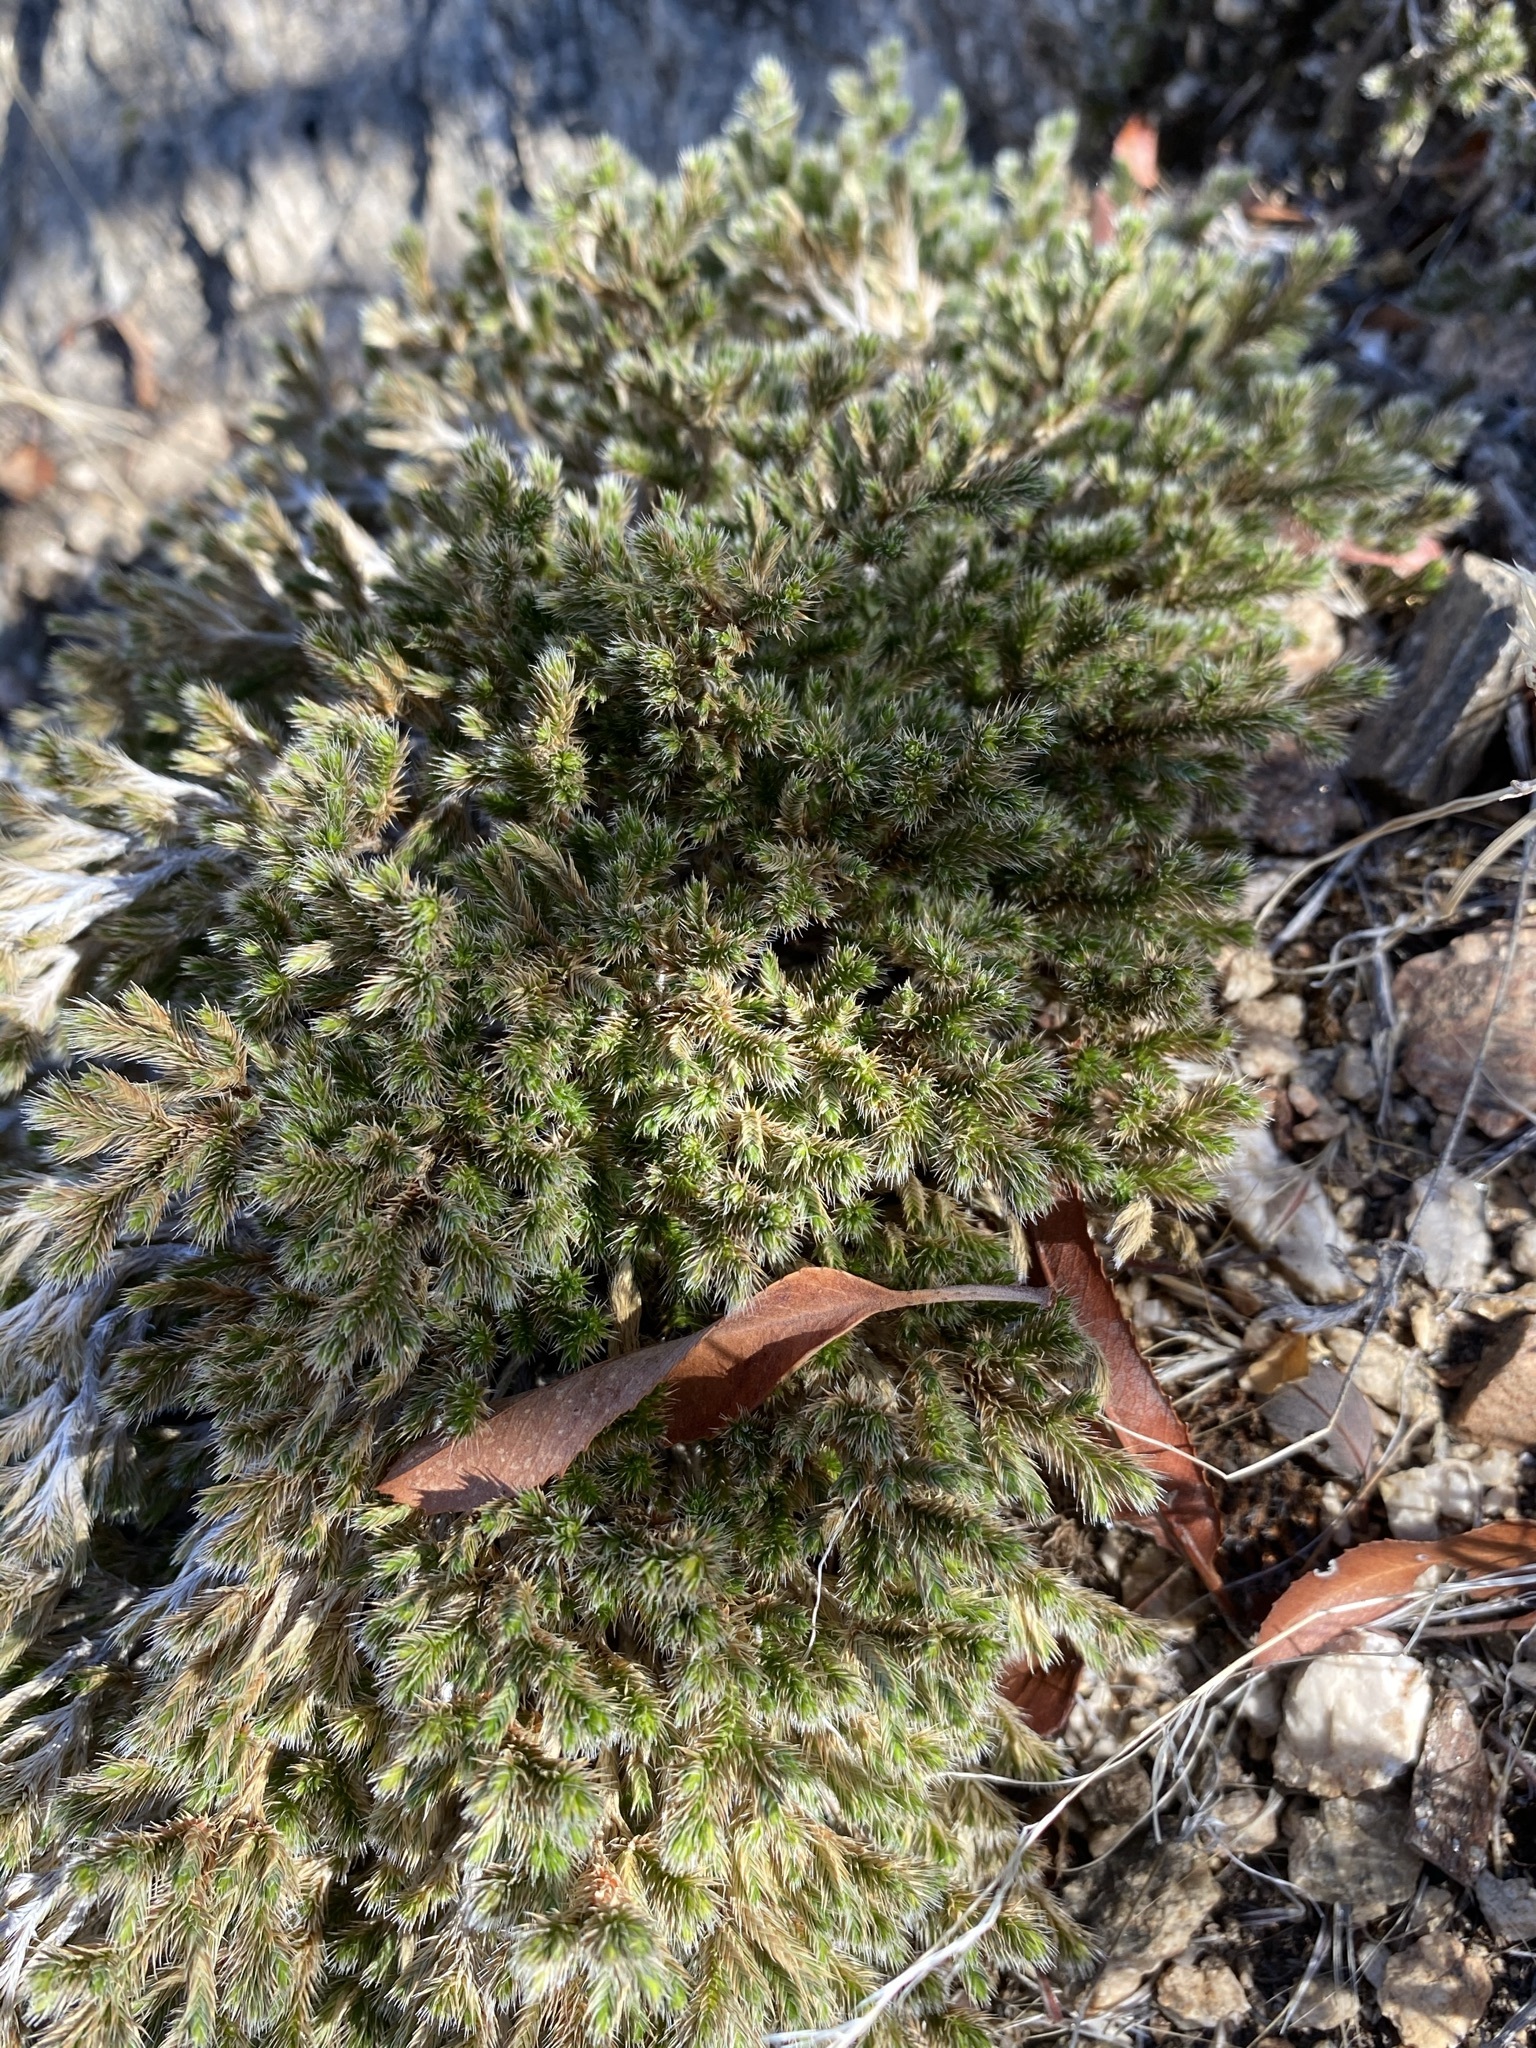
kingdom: Plantae
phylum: Tracheophyta
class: Lycopodiopsida
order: Selaginellales
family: Selaginellaceae
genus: Selaginella
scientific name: Selaginella rupincola
